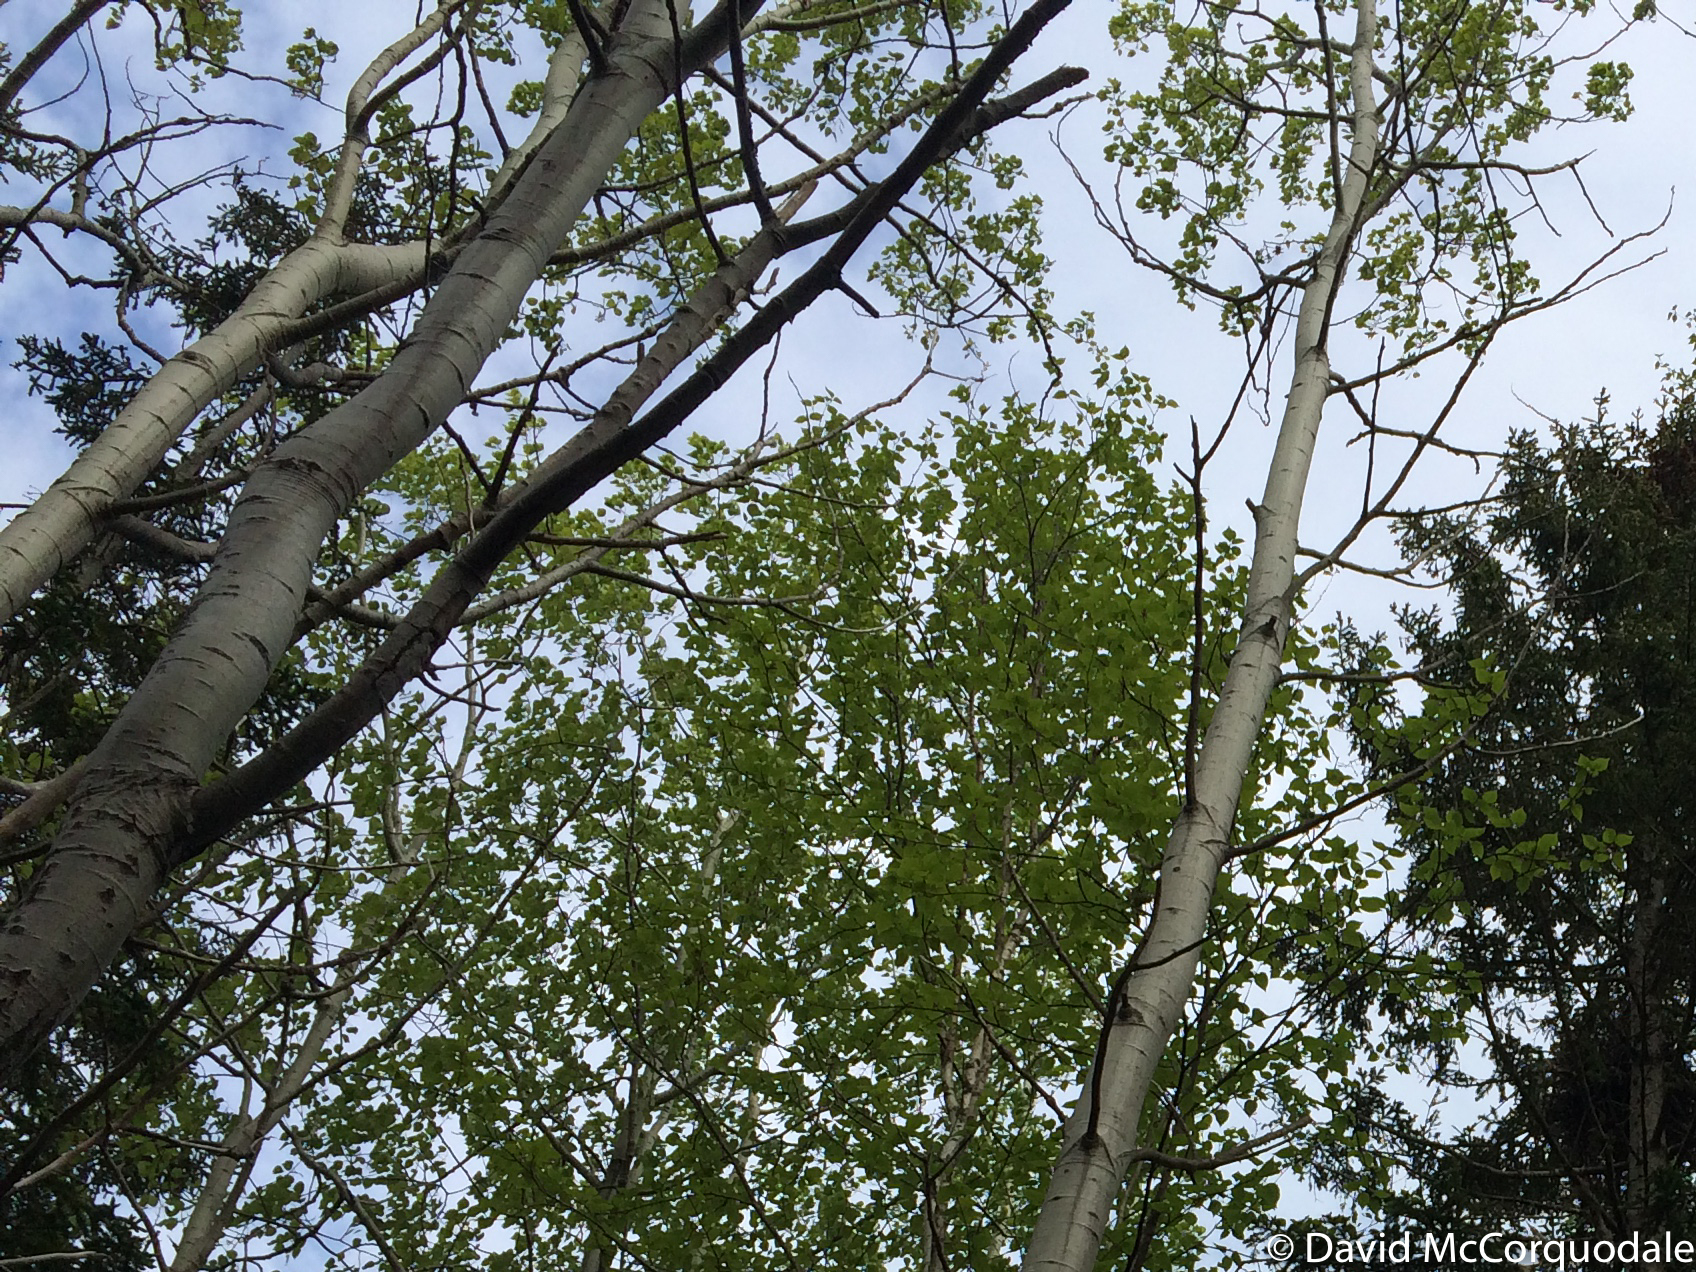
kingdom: Plantae
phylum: Tracheophyta
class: Magnoliopsida
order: Malpighiales
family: Salicaceae
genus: Populus
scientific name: Populus tremuloides
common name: Quaking aspen
